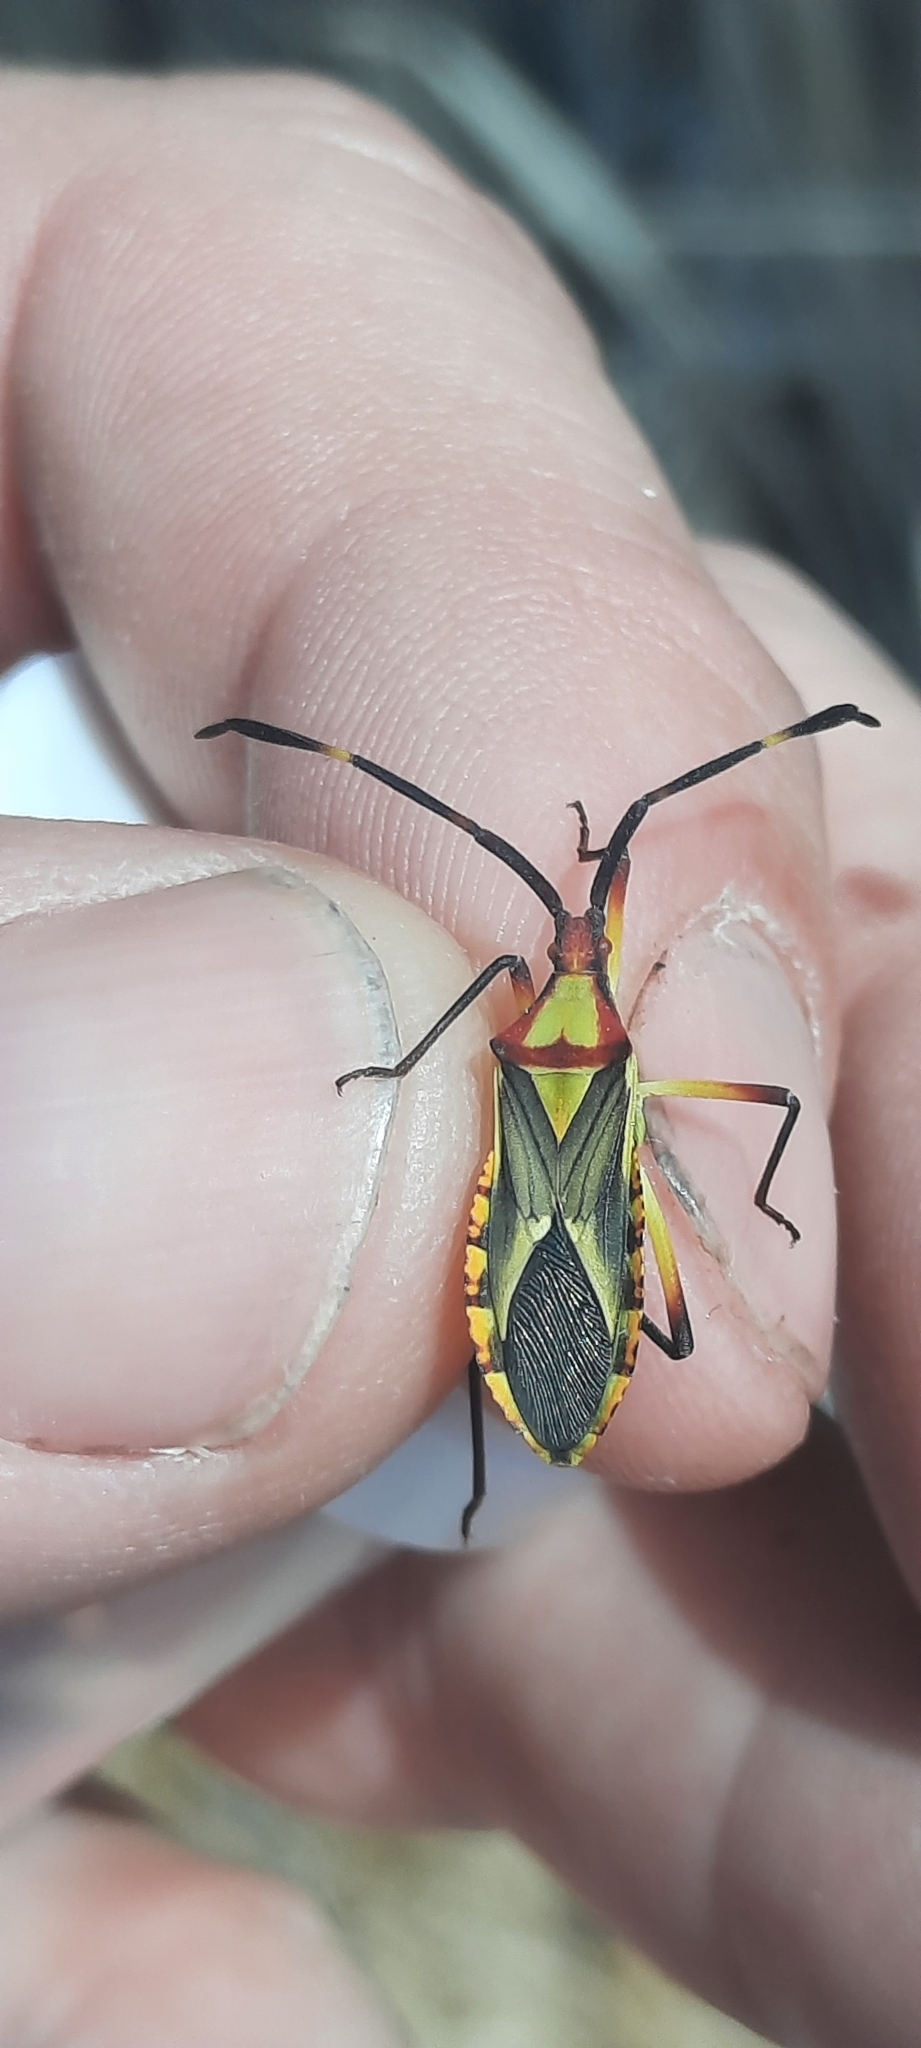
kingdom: Animalia
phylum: Arthropoda
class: Insecta
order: Hemiptera
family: Coreidae
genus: Omanocoris
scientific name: Omanocoris versicolor
